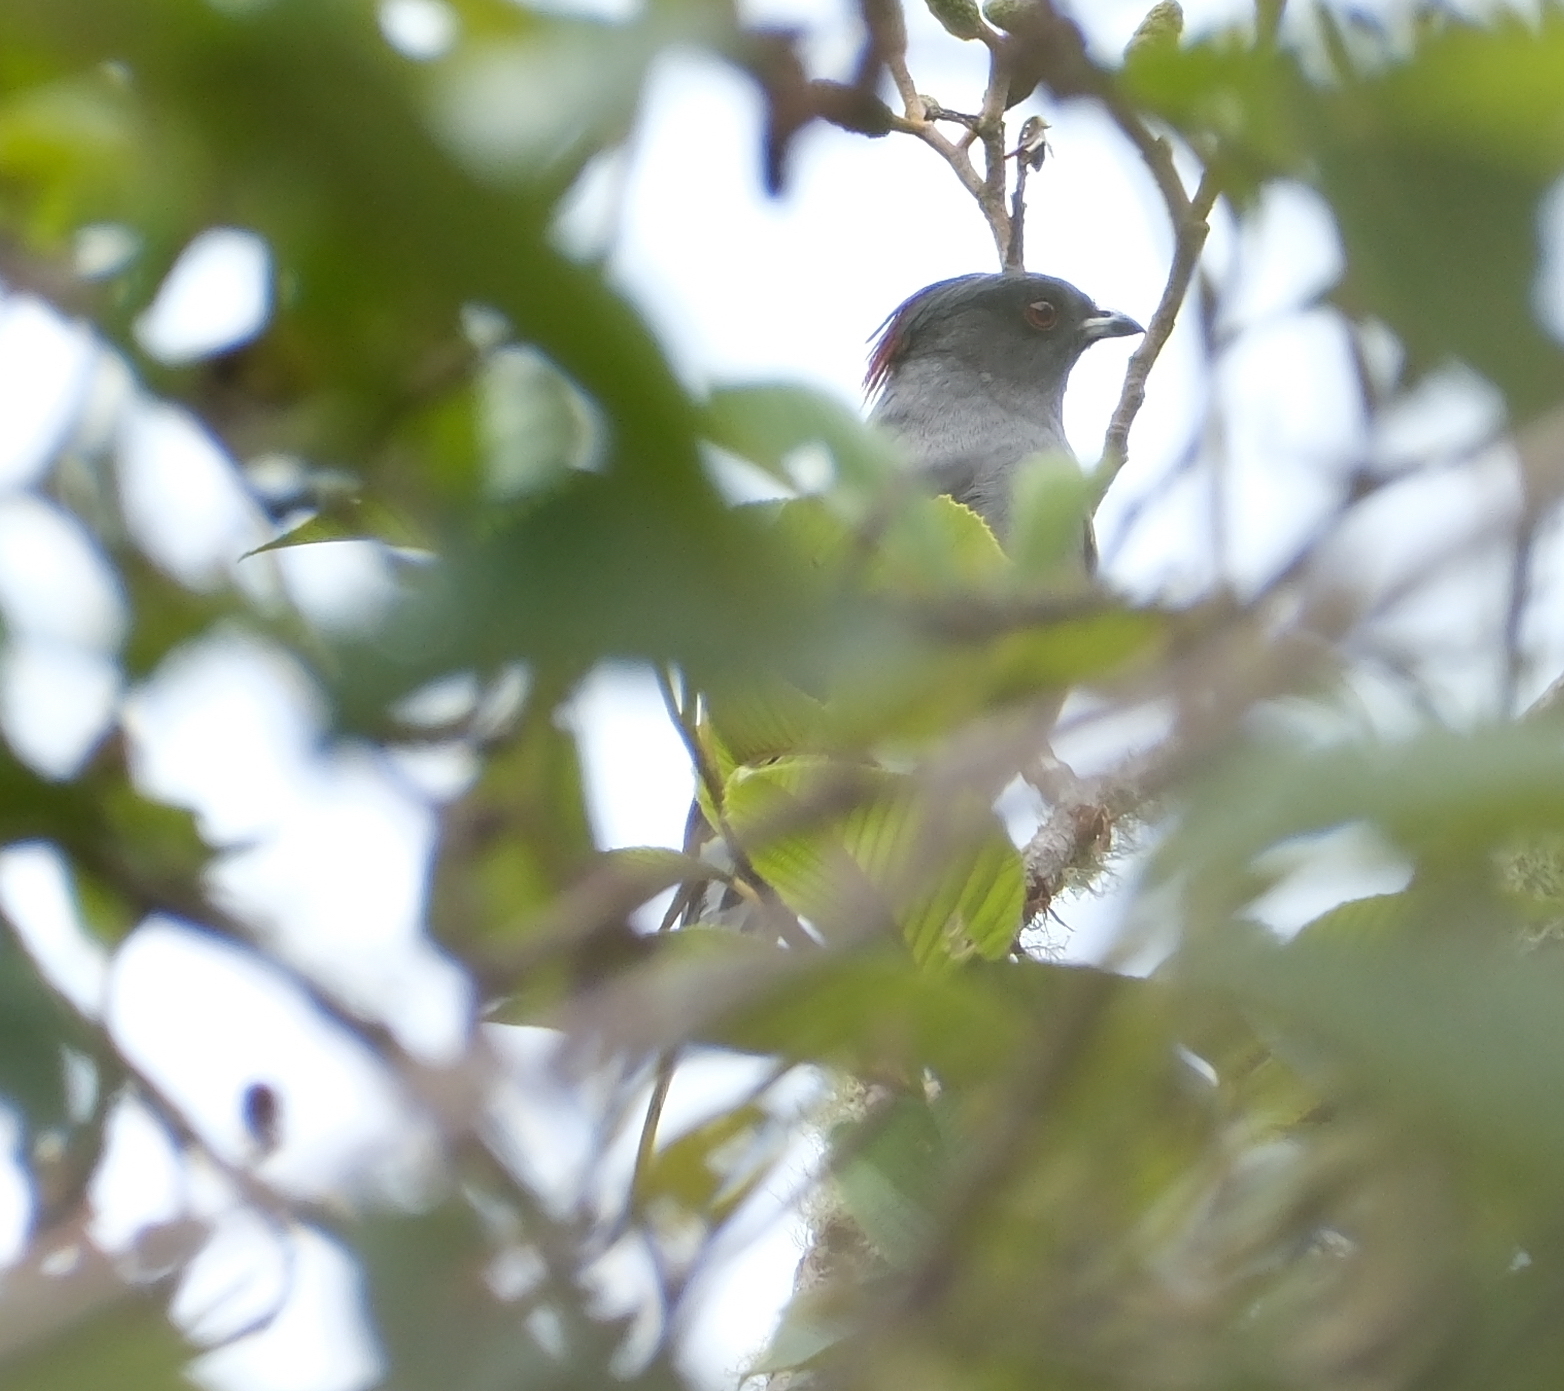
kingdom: Animalia
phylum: Chordata
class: Aves
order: Passeriformes
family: Cotingidae
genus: Ampelion
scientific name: Ampelion rubrocristatus
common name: Red-crested cotinga
